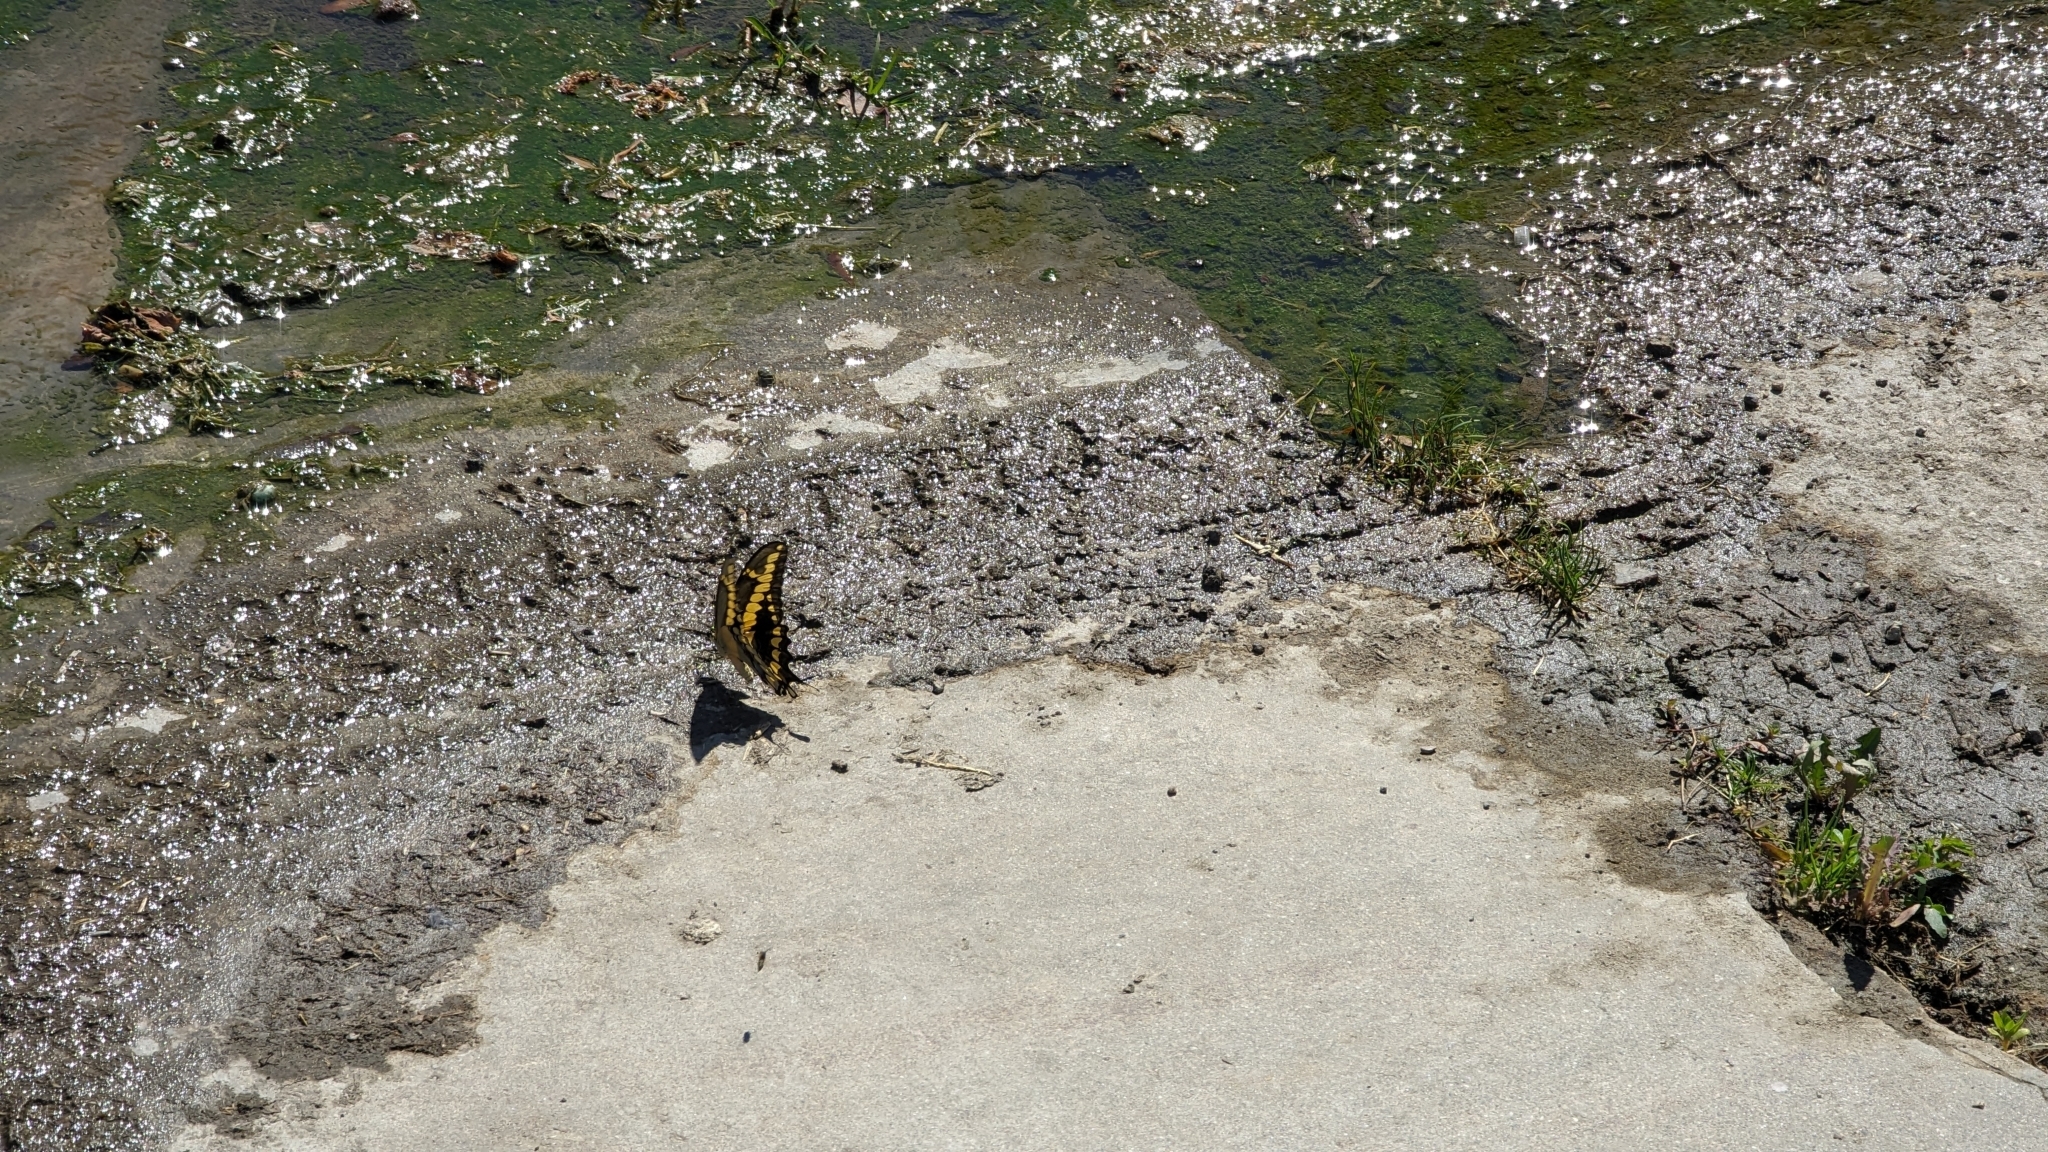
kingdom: Animalia
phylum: Arthropoda
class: Insecta
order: Lepidoptera
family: Papilionidae
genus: Papilio
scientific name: Papilio rumiko
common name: Western giant swallowtail
